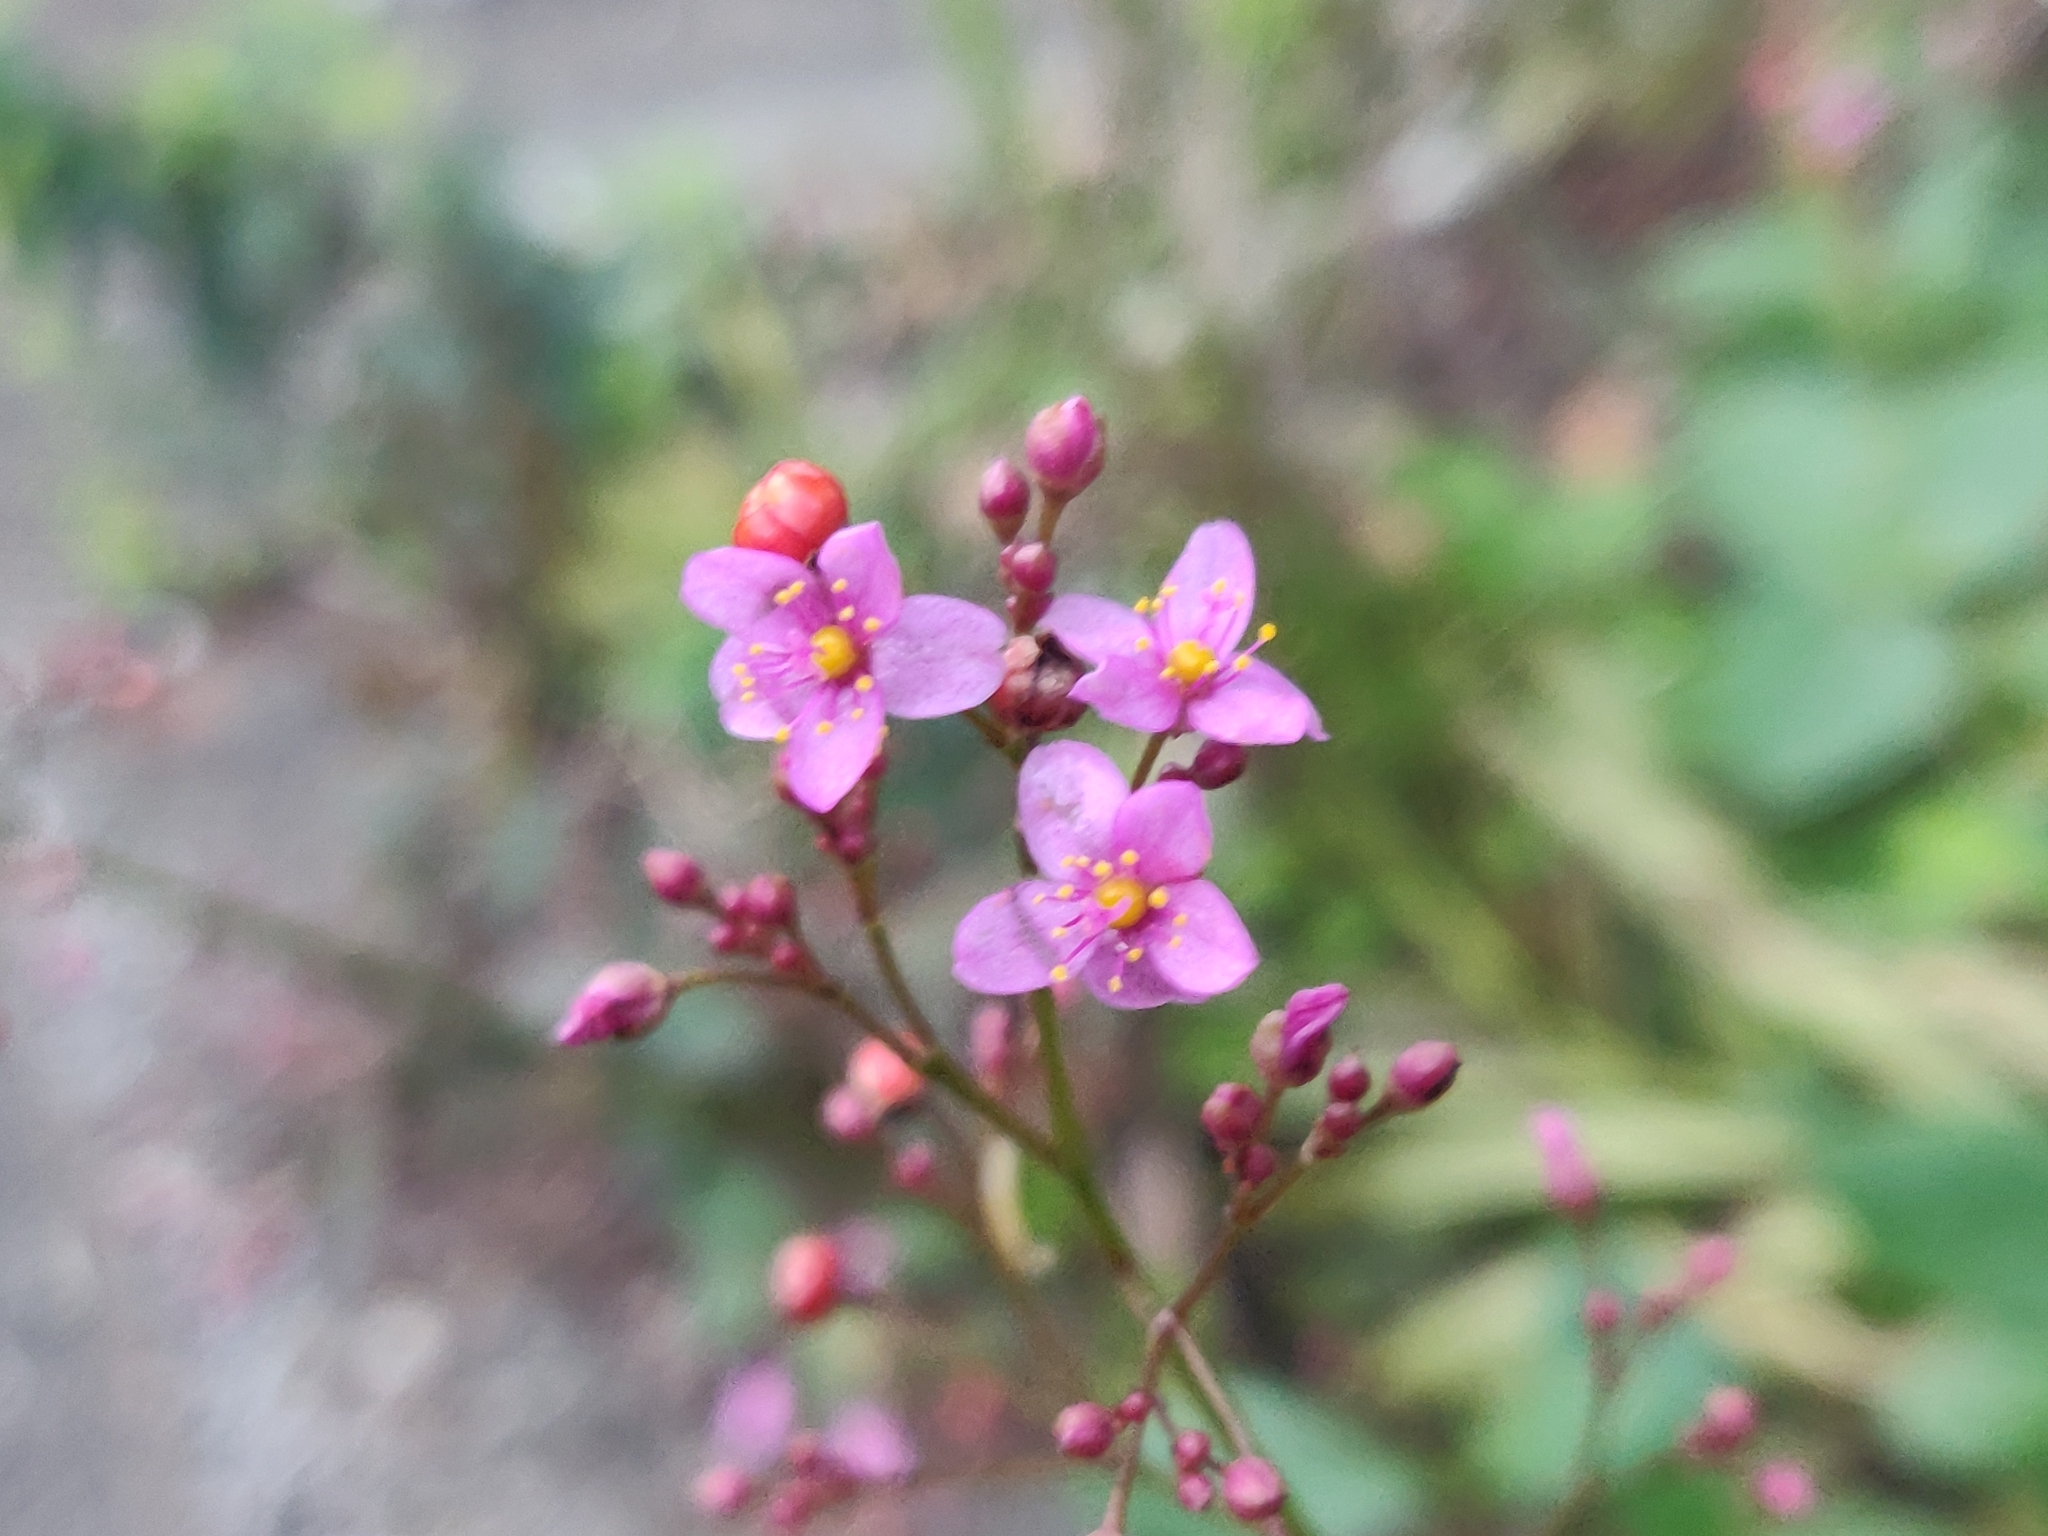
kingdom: Plantae
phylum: Tracheophyta
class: Magnoliopsida
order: Caryophyllales
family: Talinaceae
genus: Talinum
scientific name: Talinum paniculatum
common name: Jewels of opar
